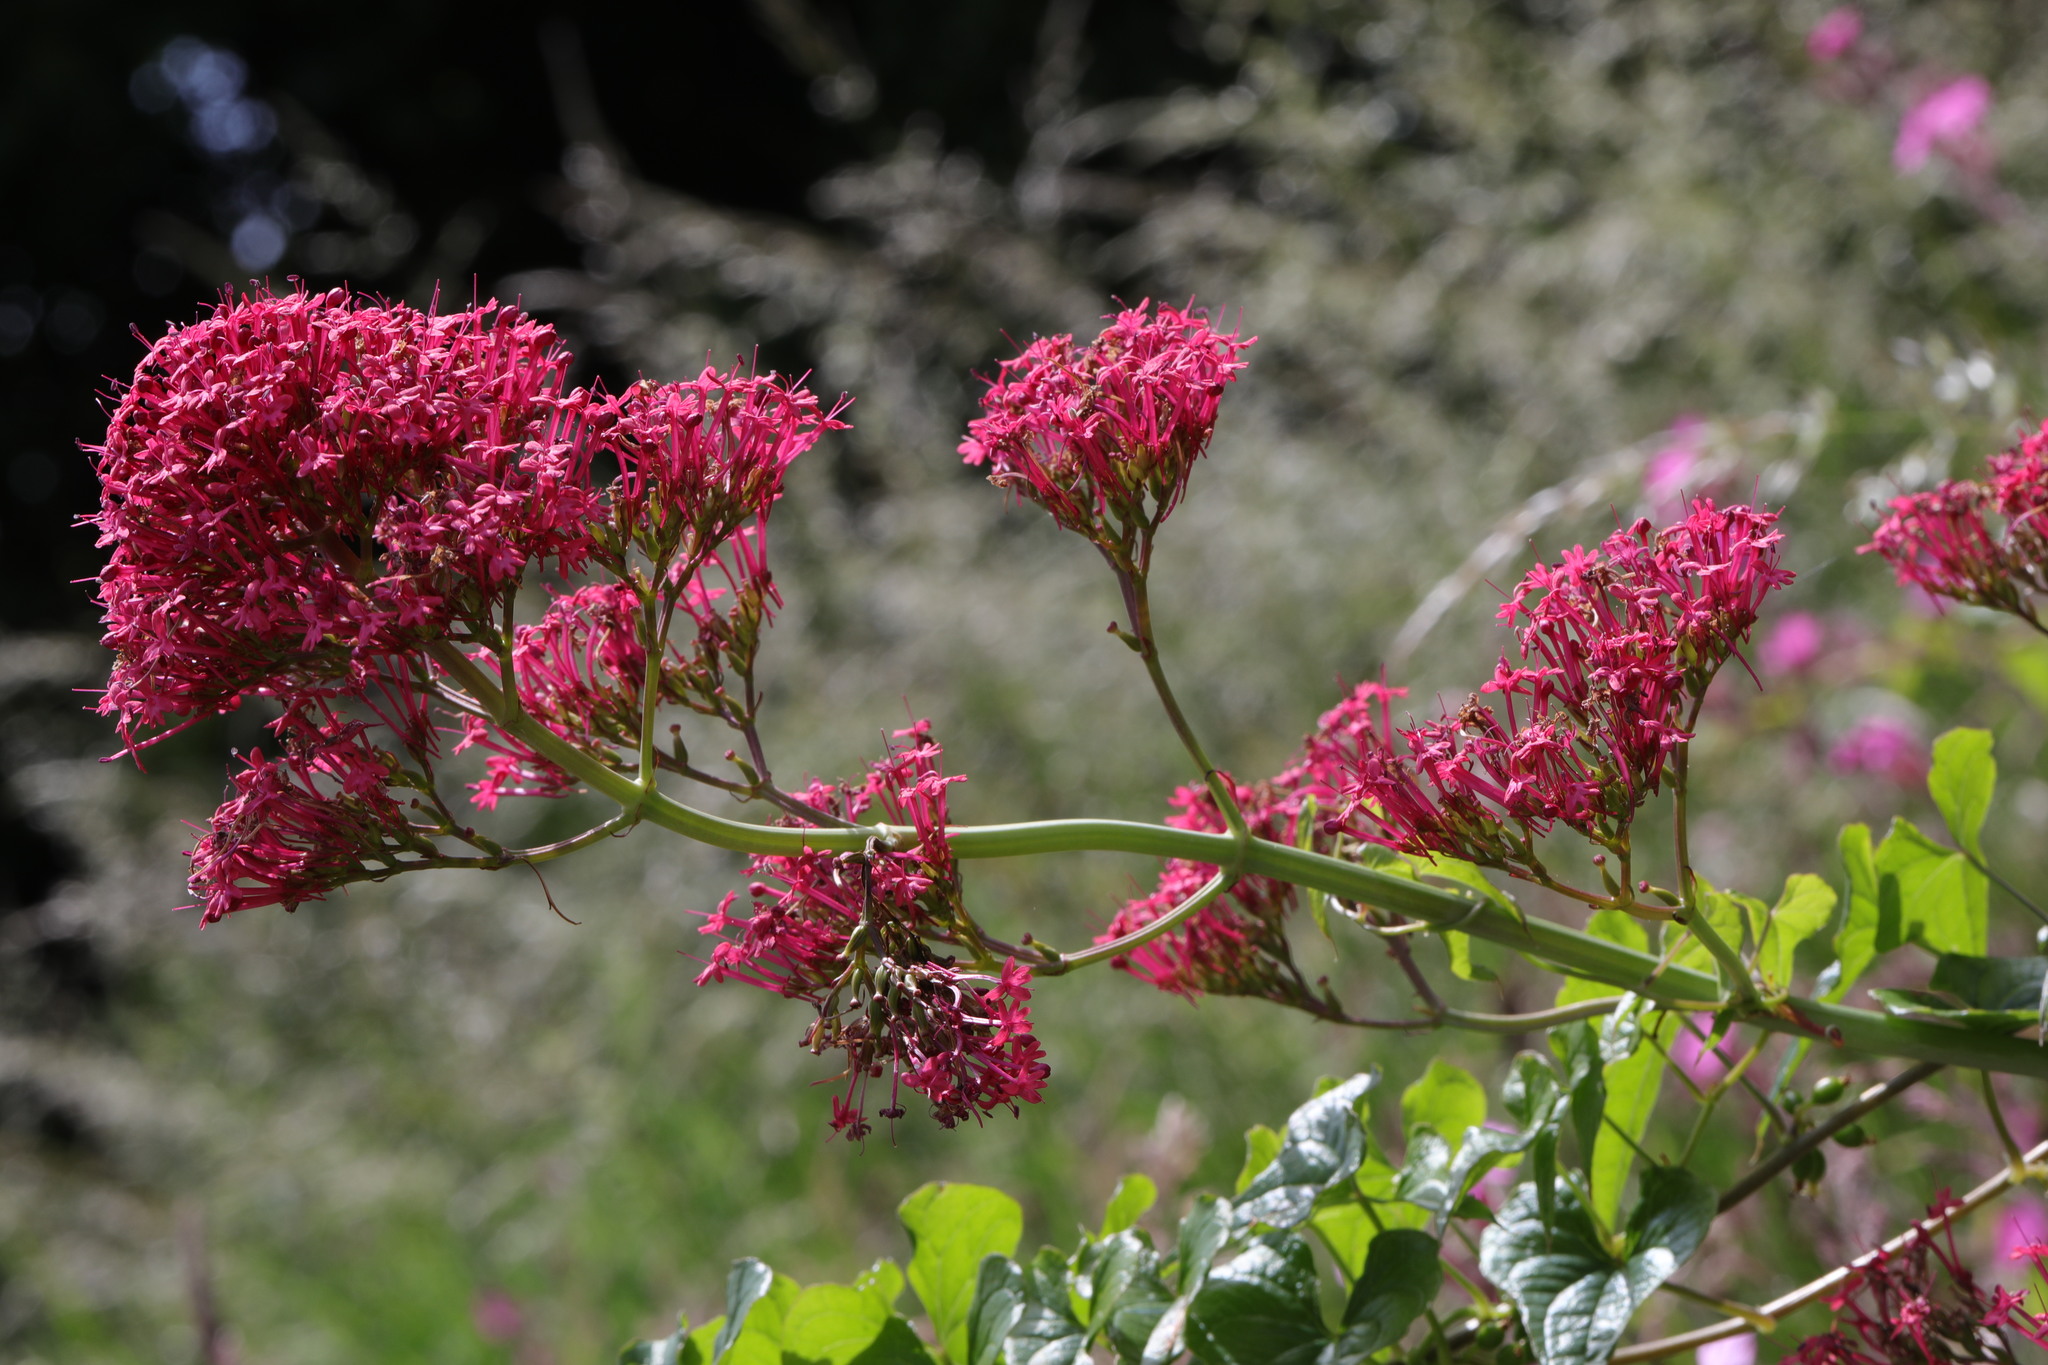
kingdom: Plantae
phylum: Tracheophyta
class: Magnoliopsida
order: Dipsacales
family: Caprifoliaceae
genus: Centranthus
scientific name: Centranthus ruber
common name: Red valerian
